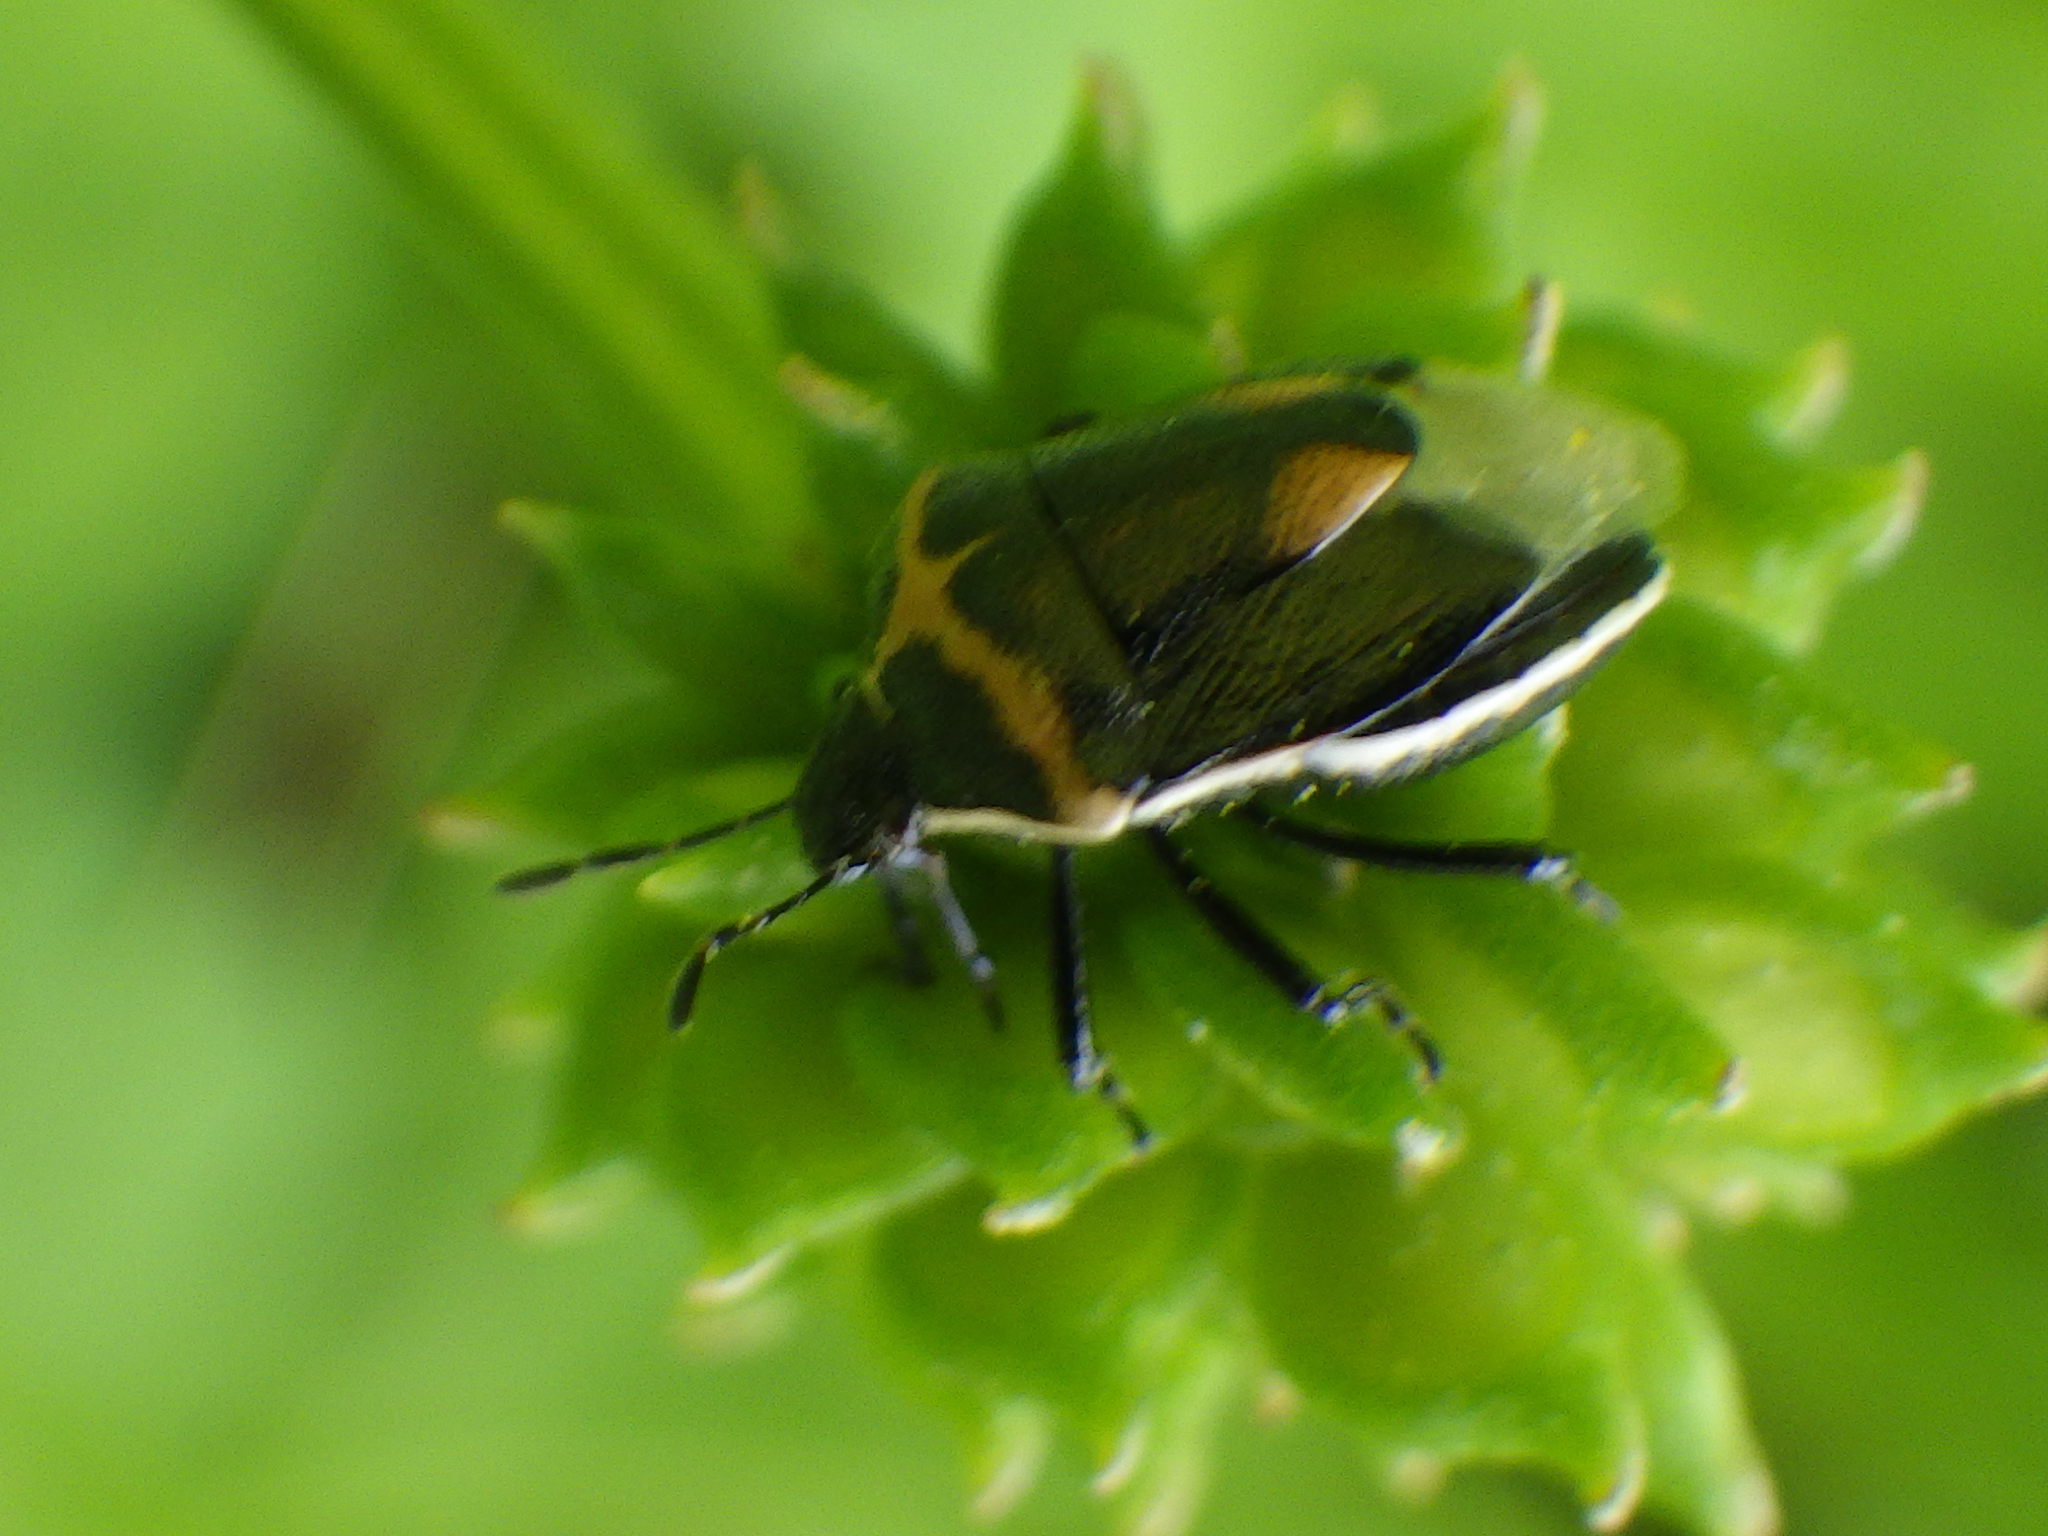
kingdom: Animalia
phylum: Arthropoda
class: Insecta
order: Hemiptera
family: Pentatomidae
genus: Cosmopepla
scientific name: Cosmopepla lintneriana
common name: Twice-stabbed stink bug
